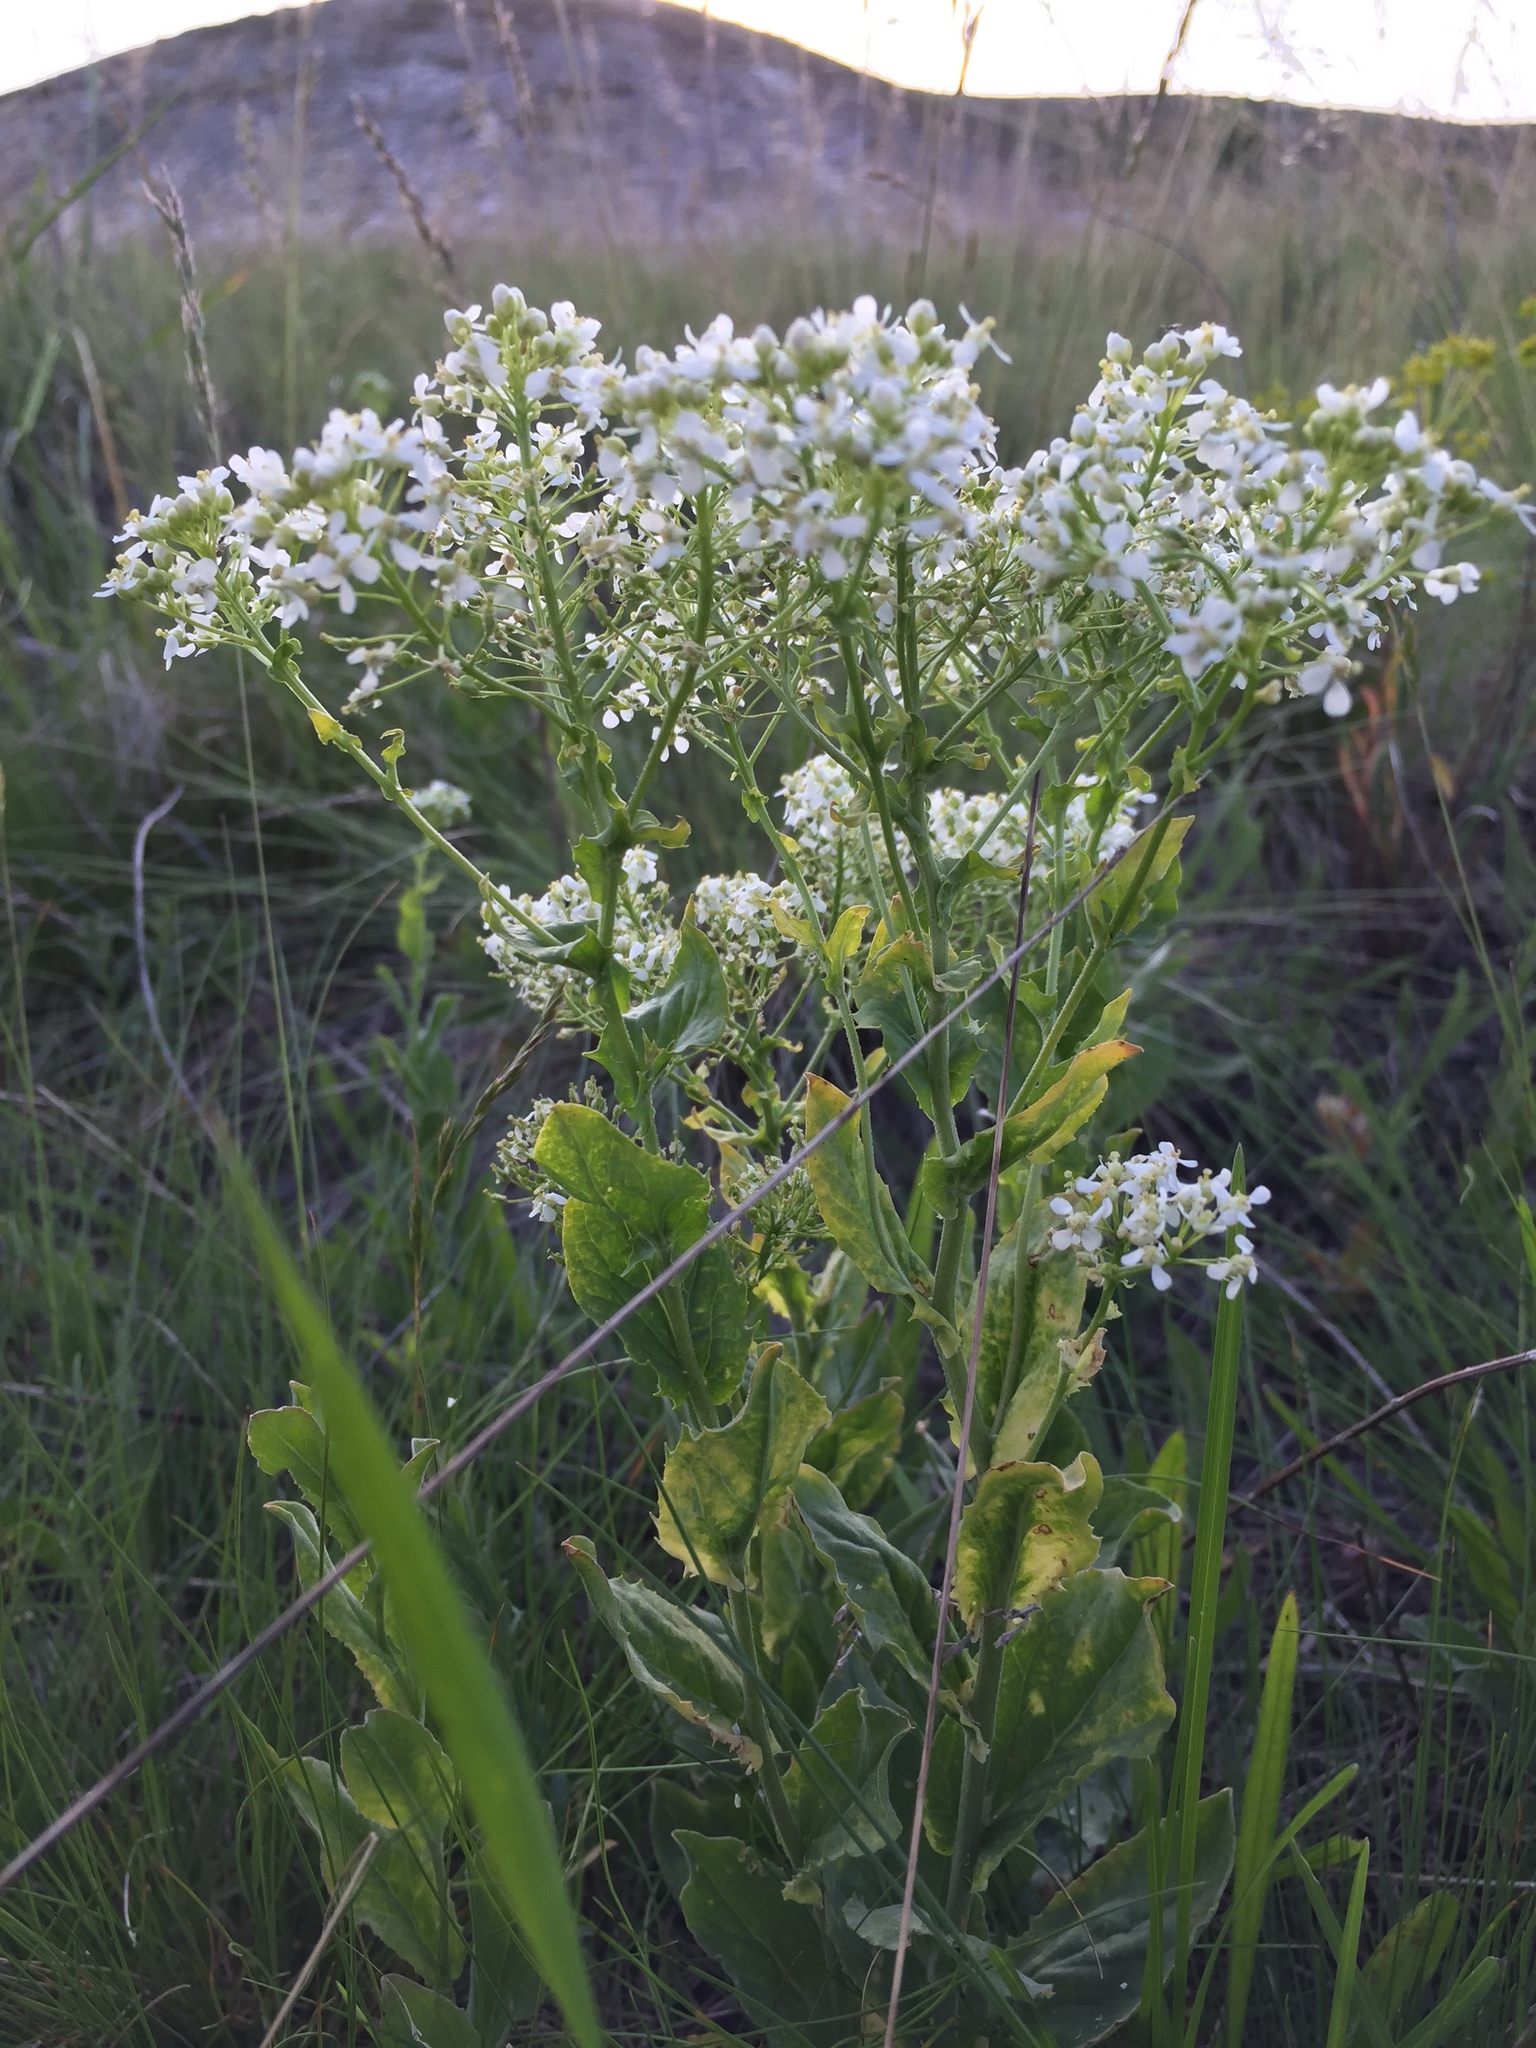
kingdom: Plantae
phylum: Tracheophyta
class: Magnoliopsida
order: Brassicales
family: Brassicaceae
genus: Lepidium
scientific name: Lepidium draba
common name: Hoary cress
